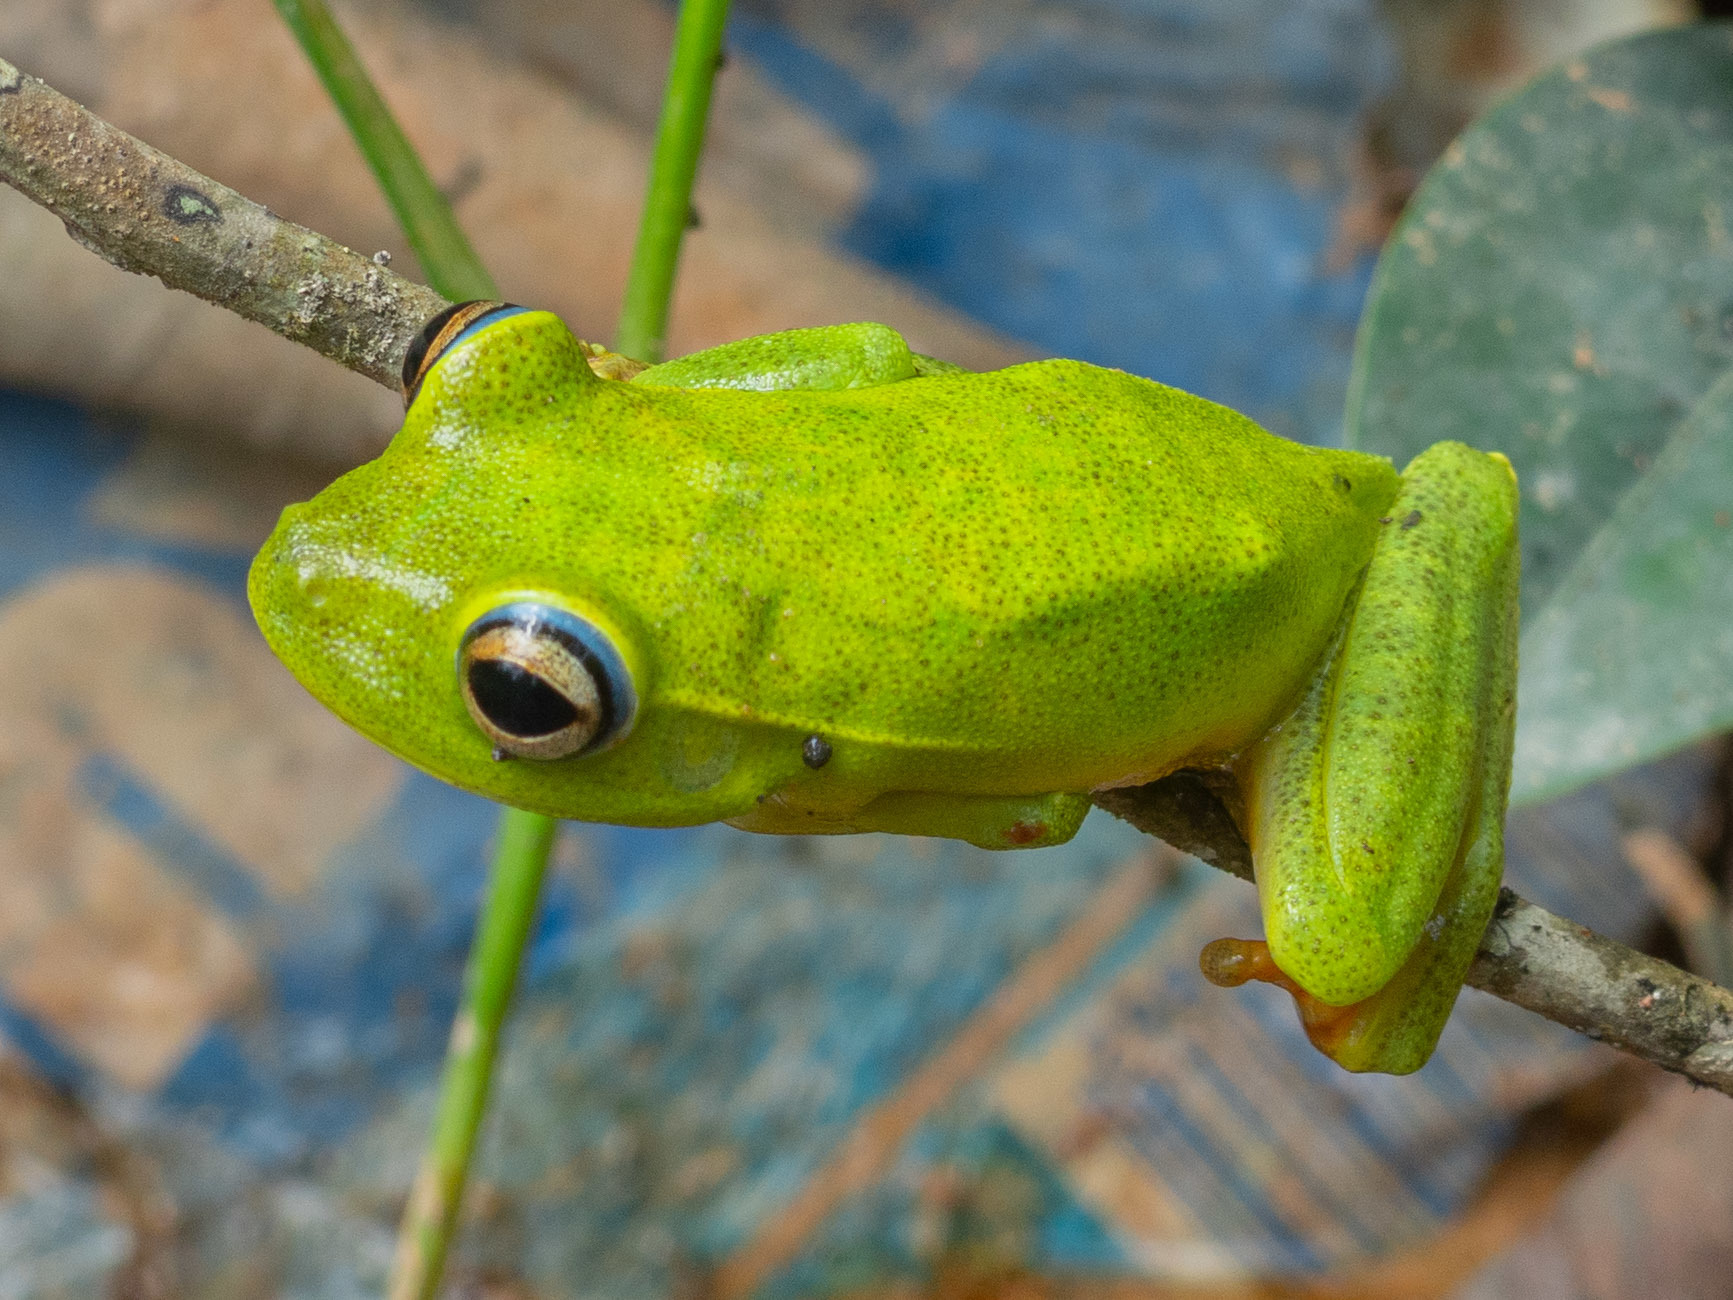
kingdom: Animalia
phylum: Chordata
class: Amphibia
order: Anura
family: Hylidae
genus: Boana
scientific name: Boana albomarginata
